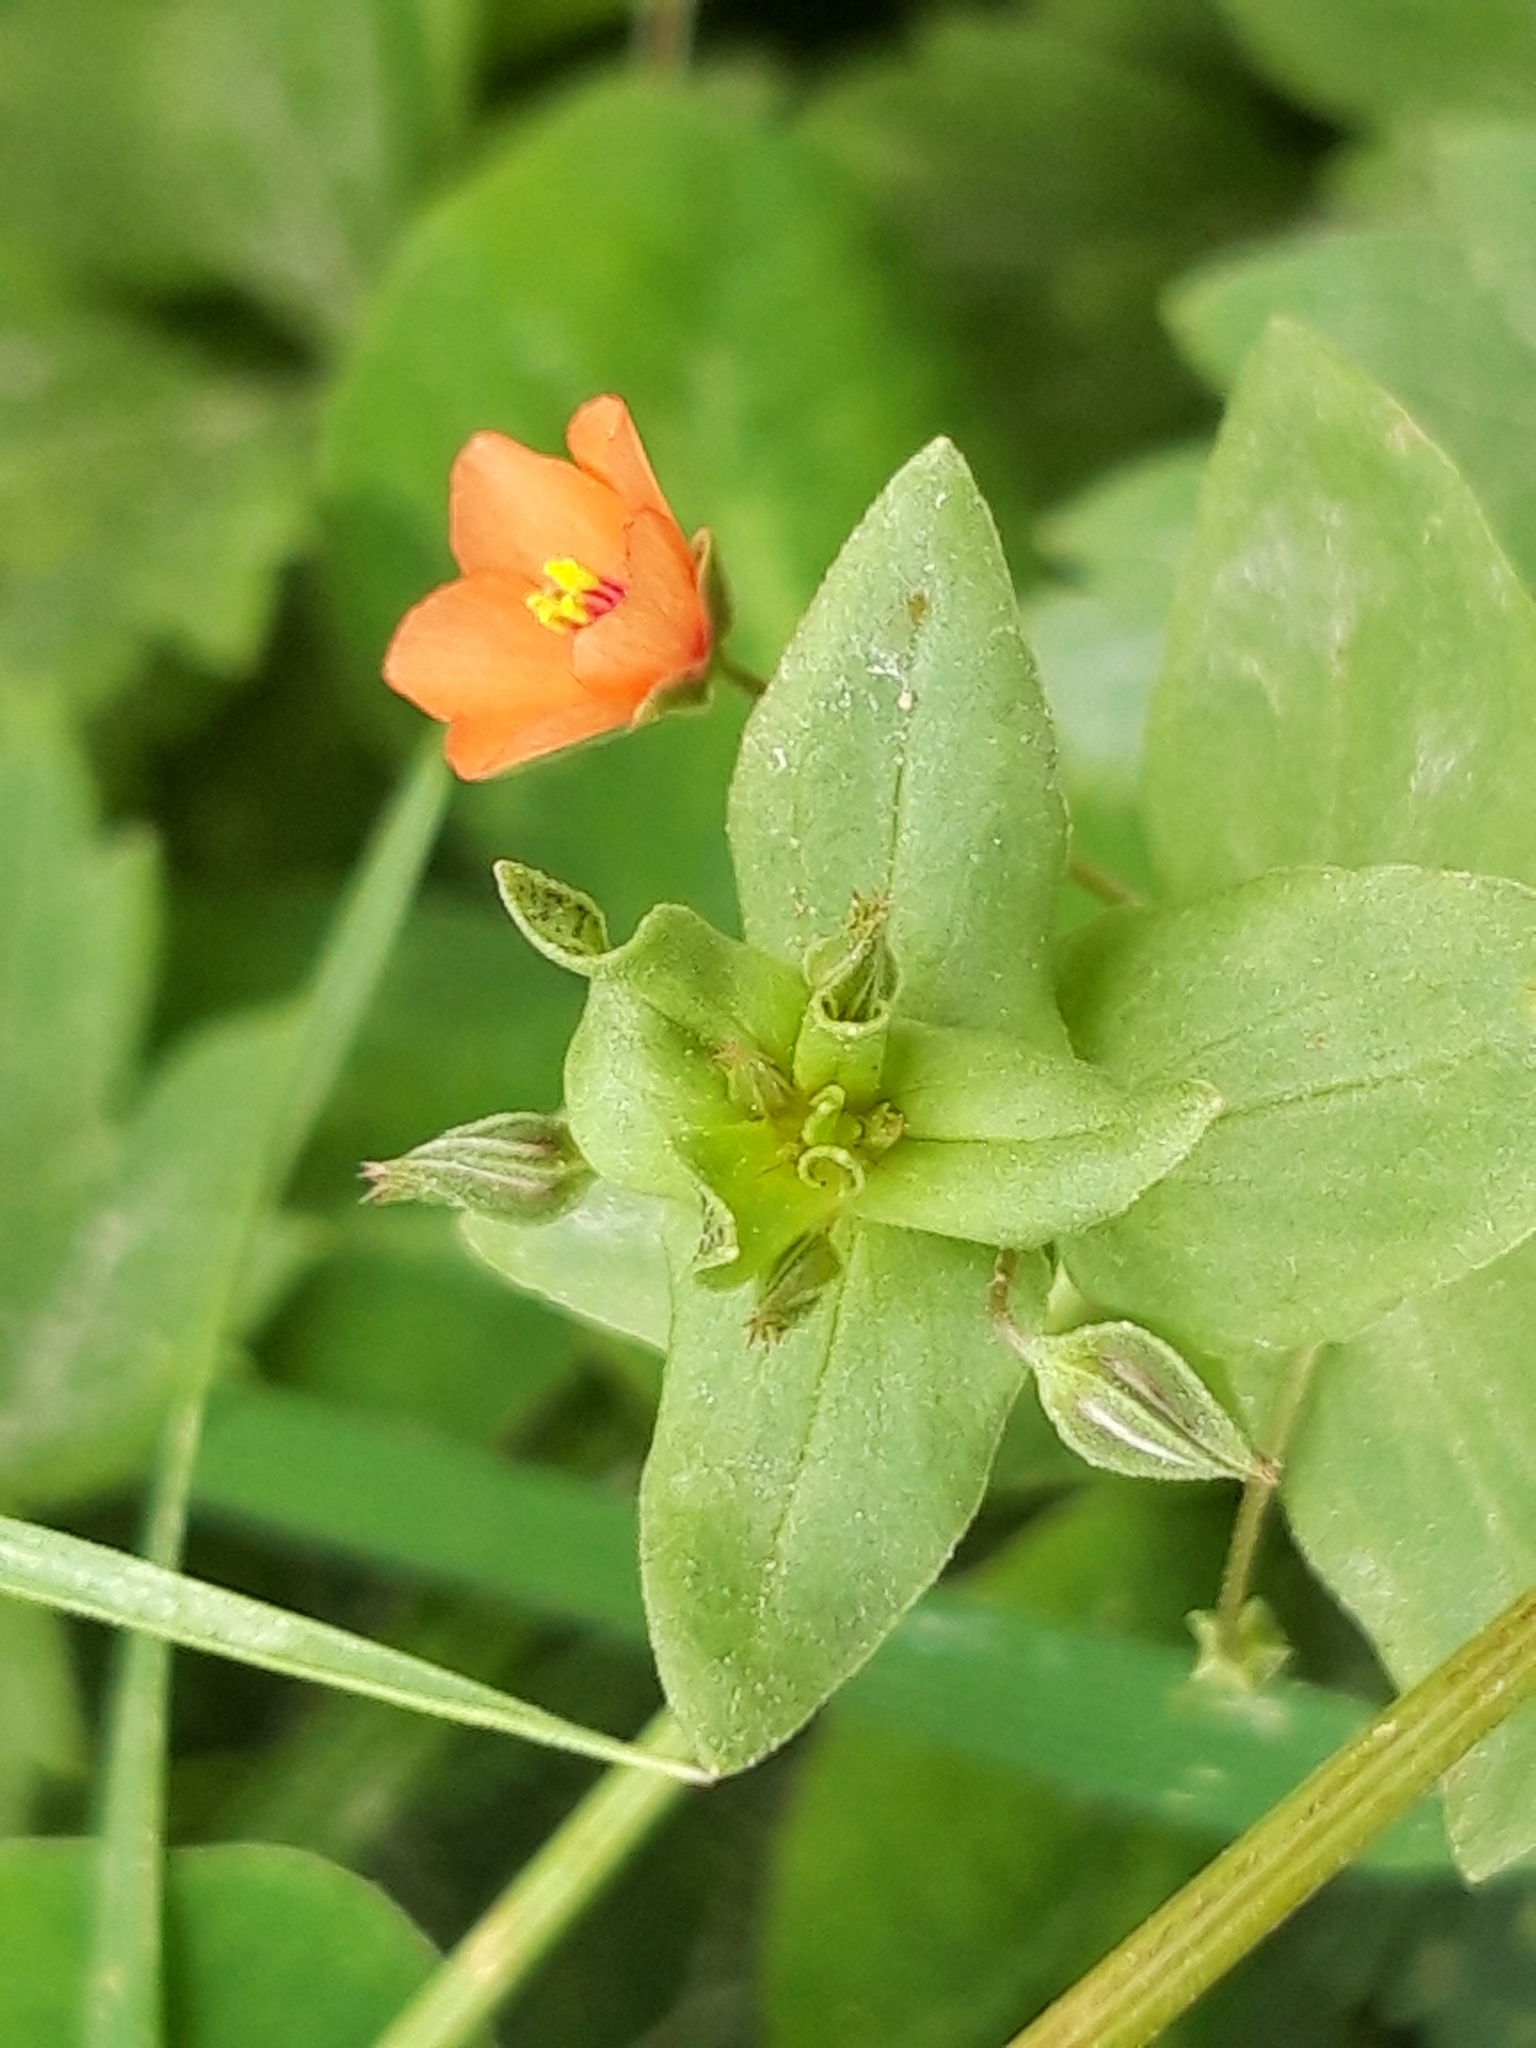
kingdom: Plantae
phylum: Tracheophyta
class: Magnoliopsida
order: Ericales
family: Primulaceae
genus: Lysimachia
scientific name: Lysimachia arvensis
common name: Scarlet pimpernel
